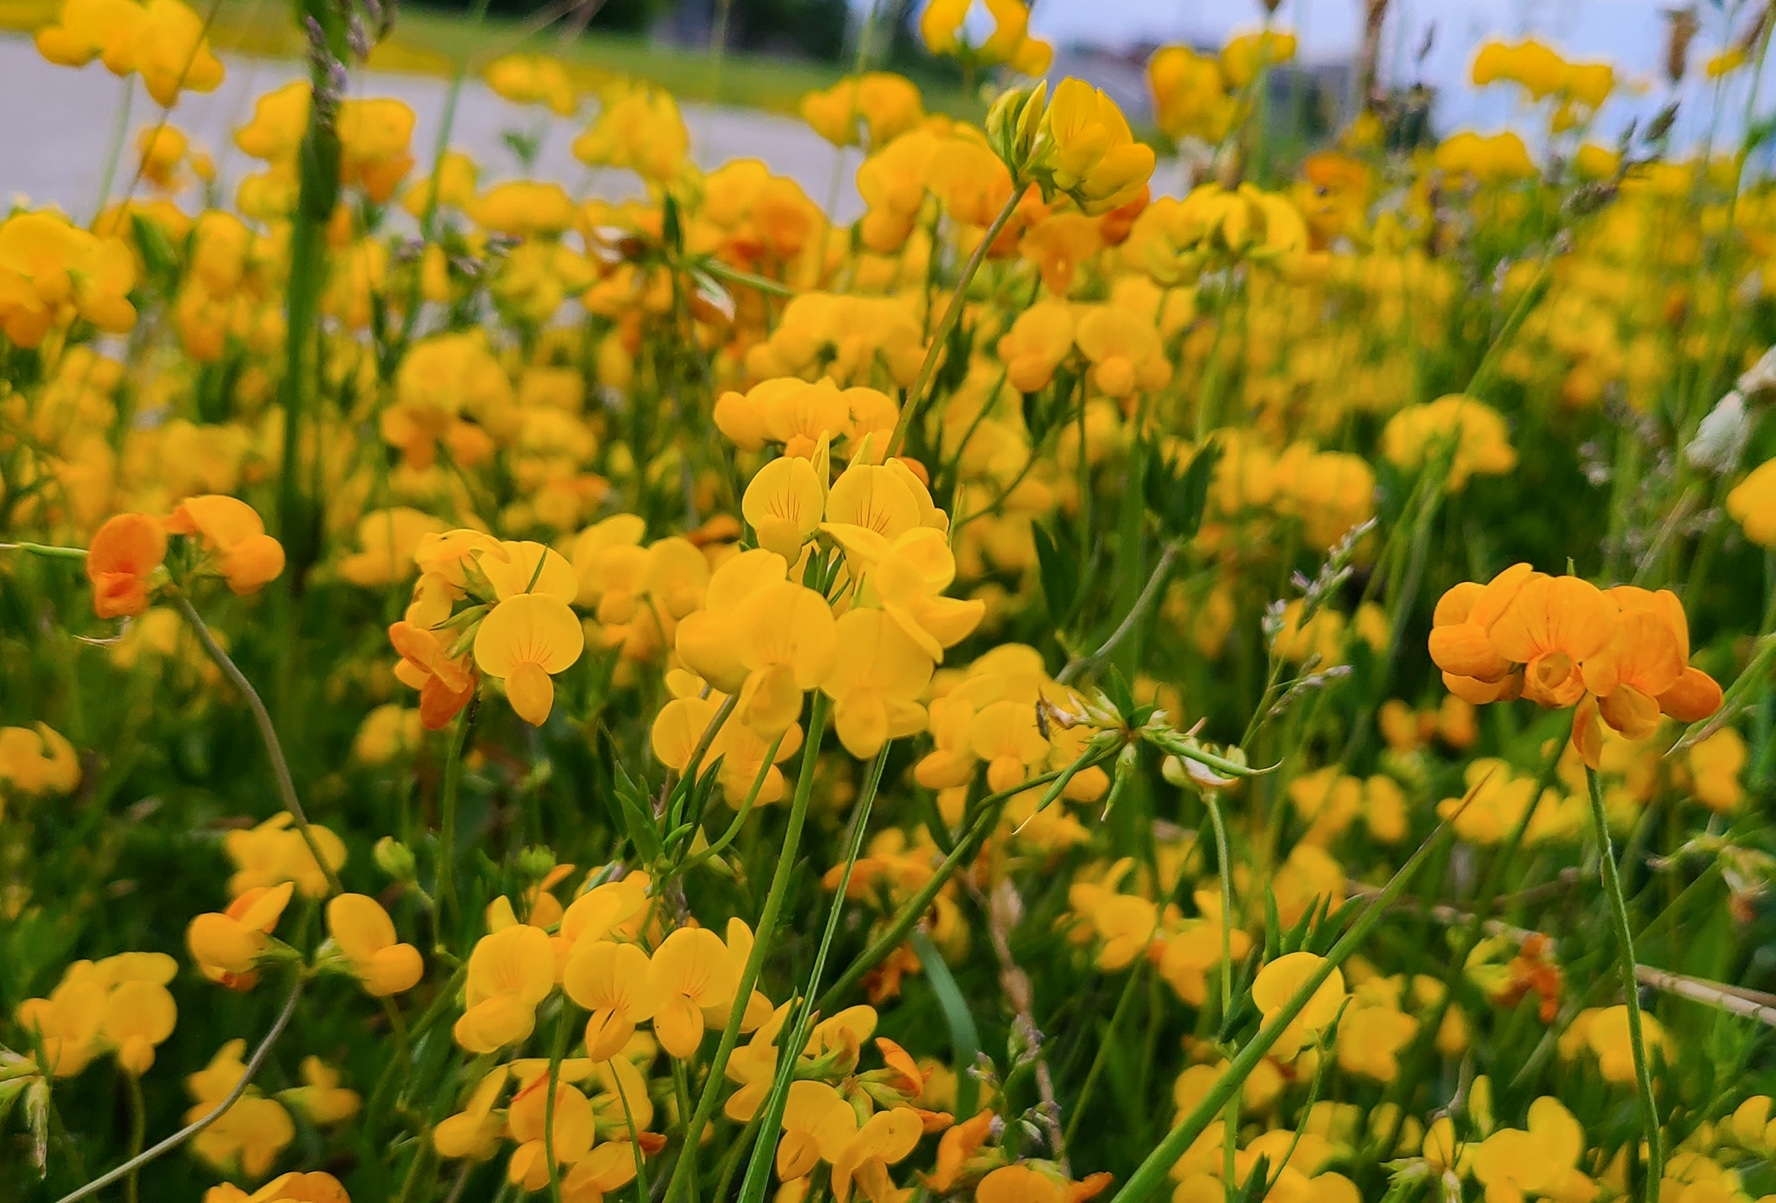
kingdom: Plantae
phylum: Tracheophyta
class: Magnoliopsida
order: Fabales
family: Fabaceae
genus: Lotus
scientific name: Lotus corniculatus
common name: Common bird's-foot-trefoil
